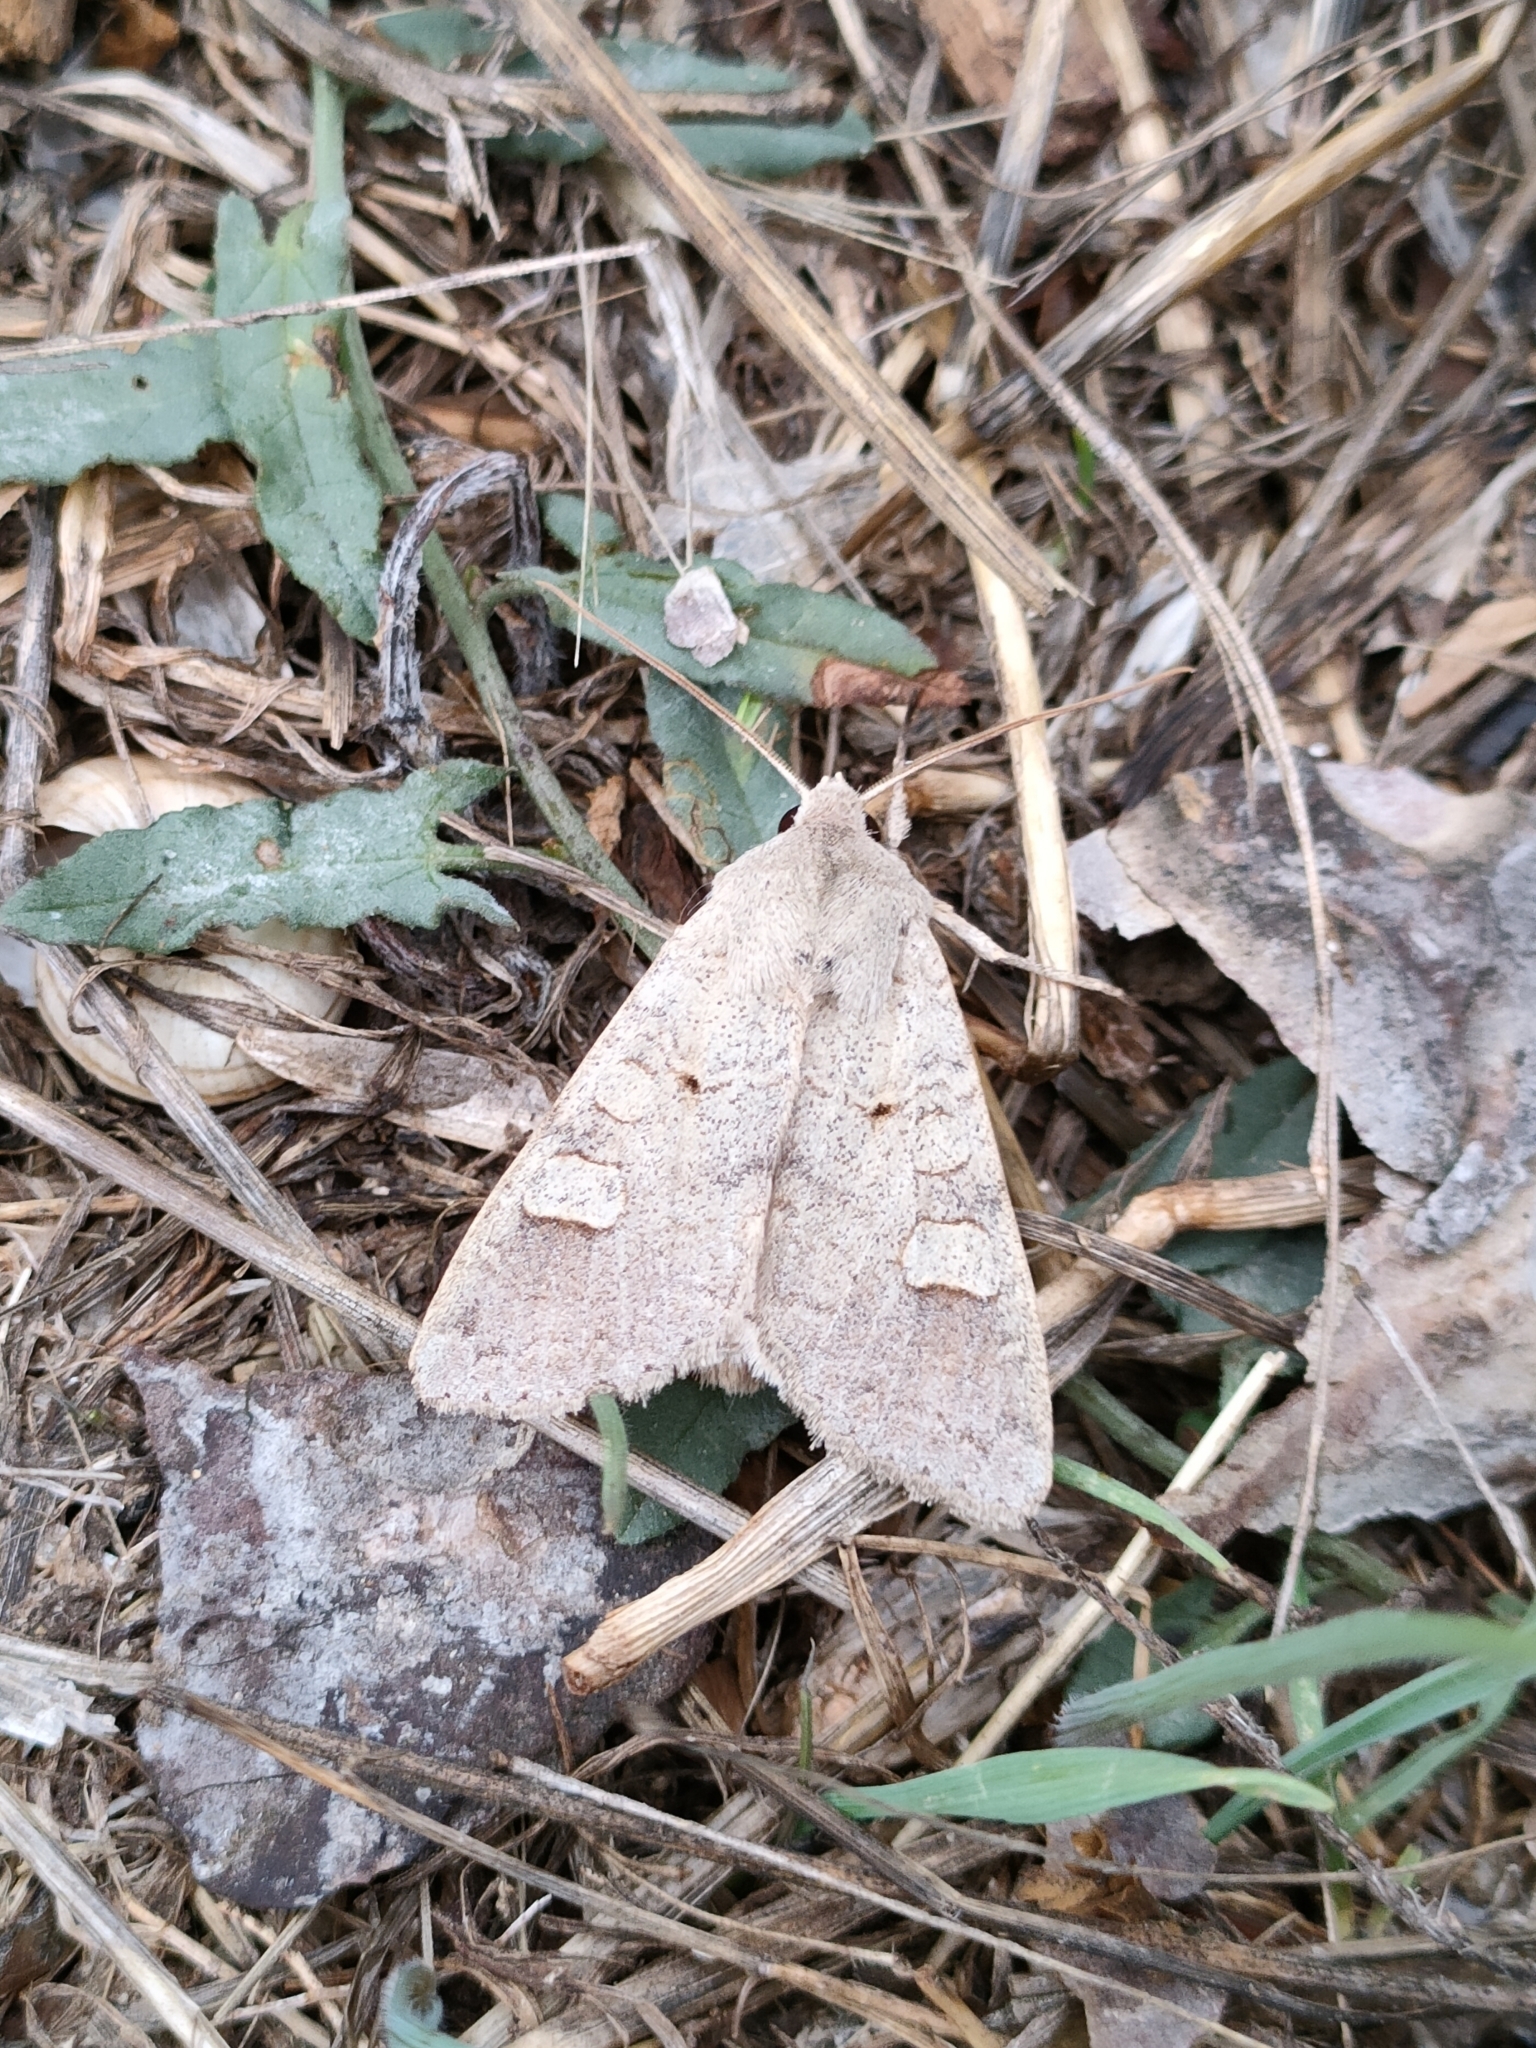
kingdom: Animalia
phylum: Arthropoda
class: Insecta
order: Lepidoptera
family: Noctuidae
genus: Ammoconia
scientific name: Ammoconia caecimacula
